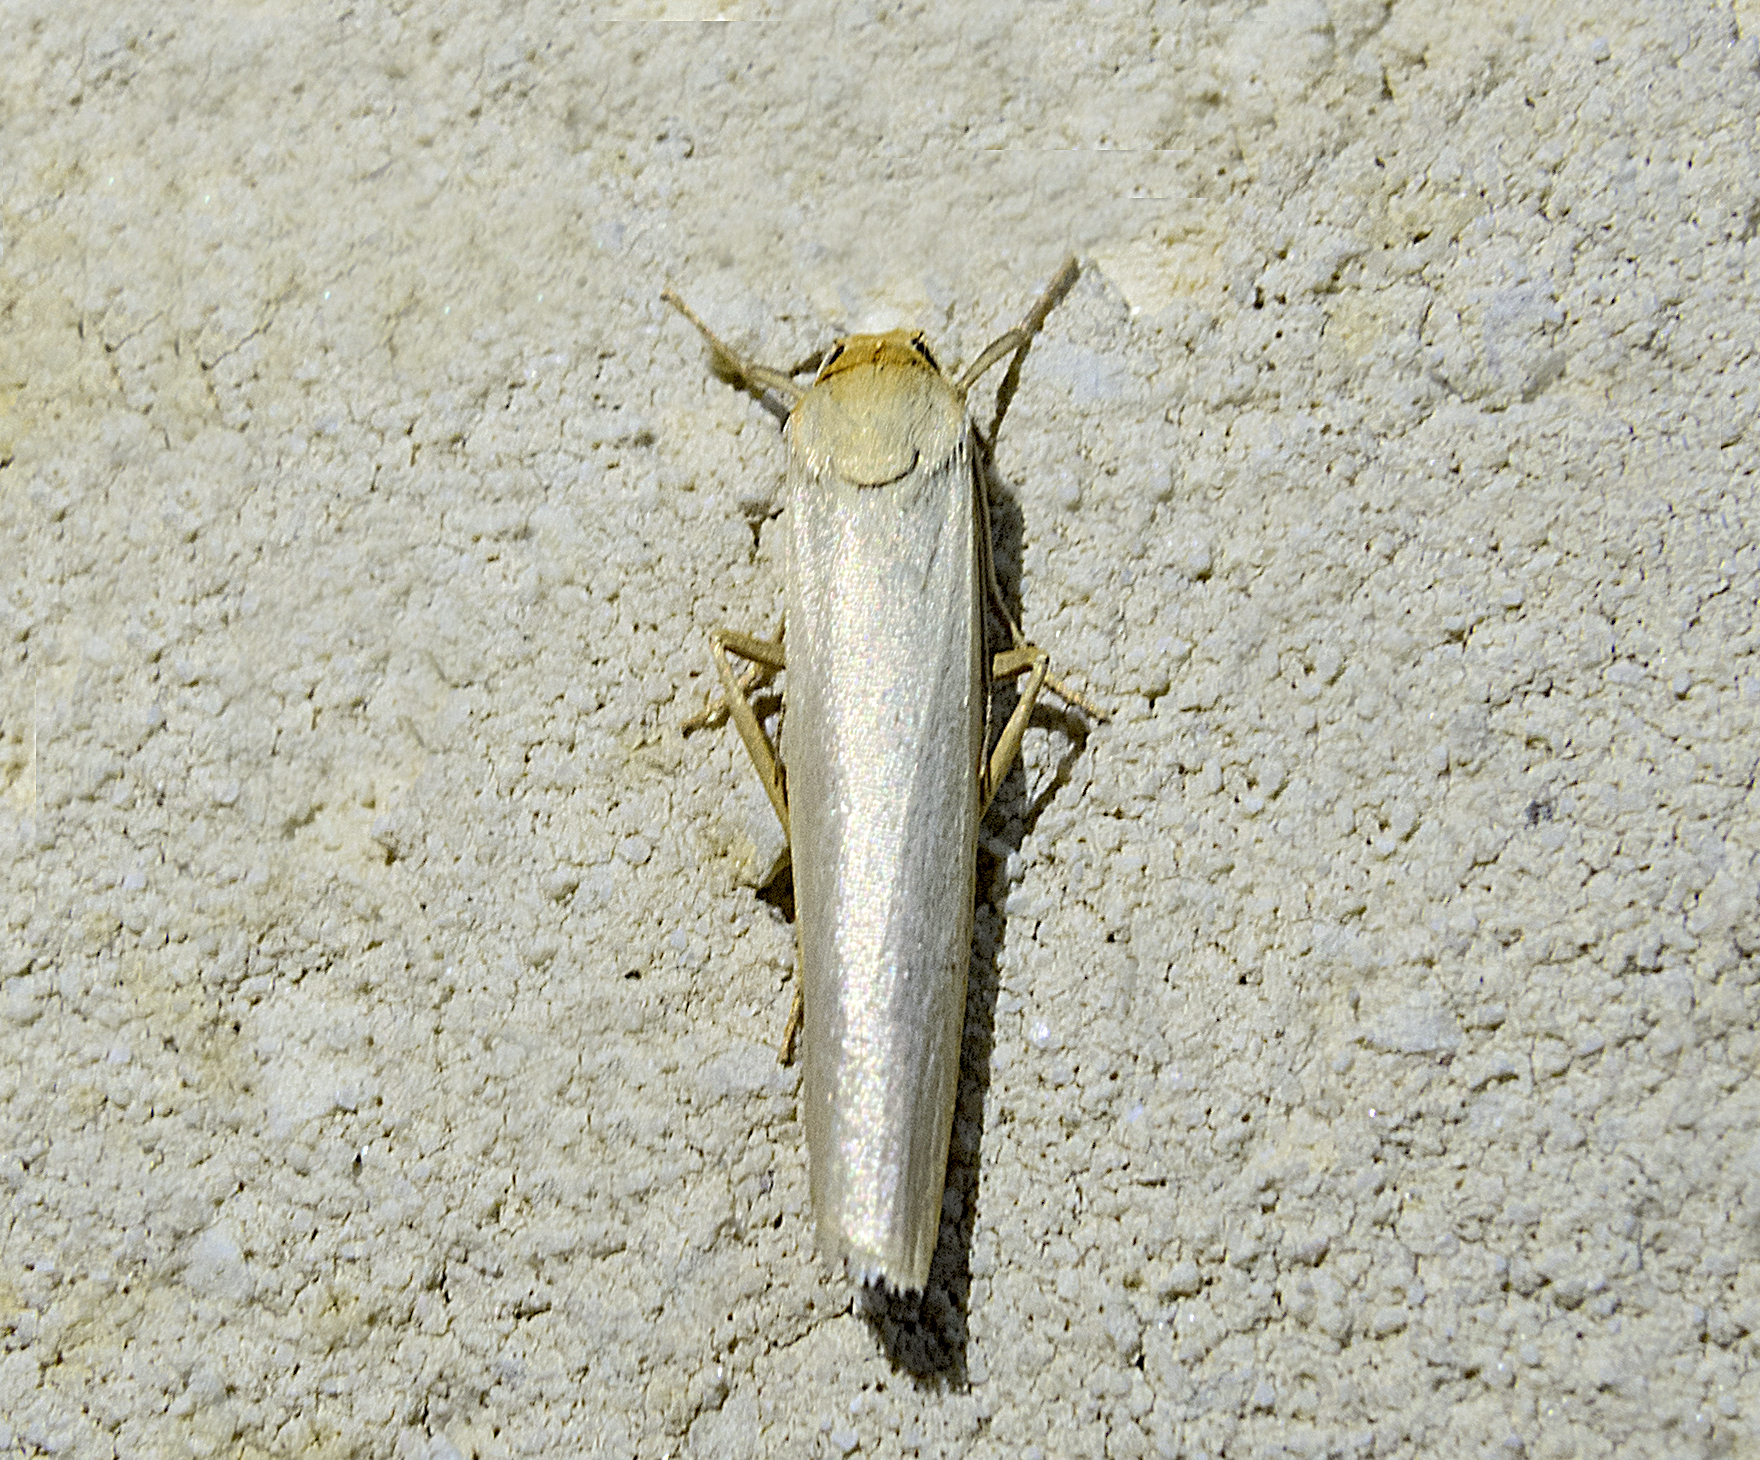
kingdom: Animalia
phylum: Arthropoda
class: Insecta
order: Lepidoptera
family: Erebidae
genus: Eilema
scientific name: Eilema caniola
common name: Hoary footman
